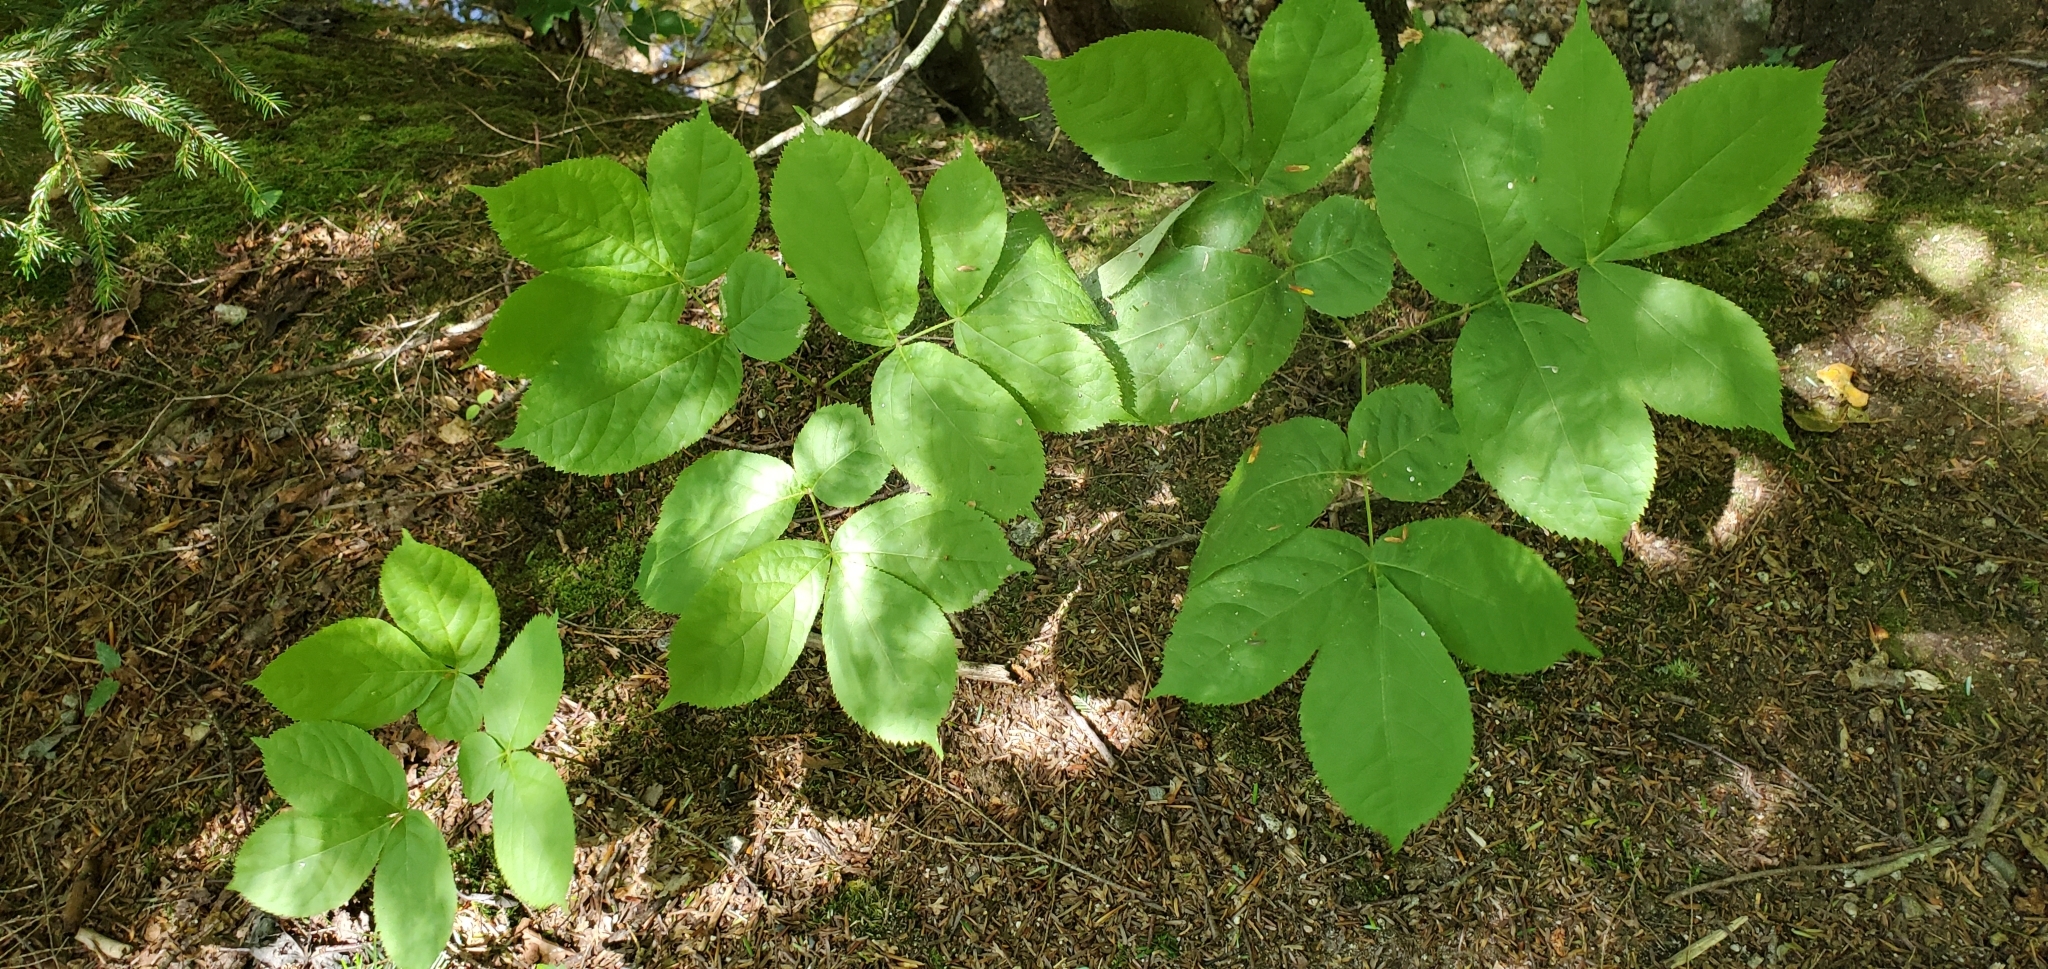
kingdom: Plantae
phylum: Tracheophyta
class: Magnoliopsida
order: Apiales
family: Araliaceae
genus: Aralia
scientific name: Aralia nudicaulis
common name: Wild sarsaparilla
